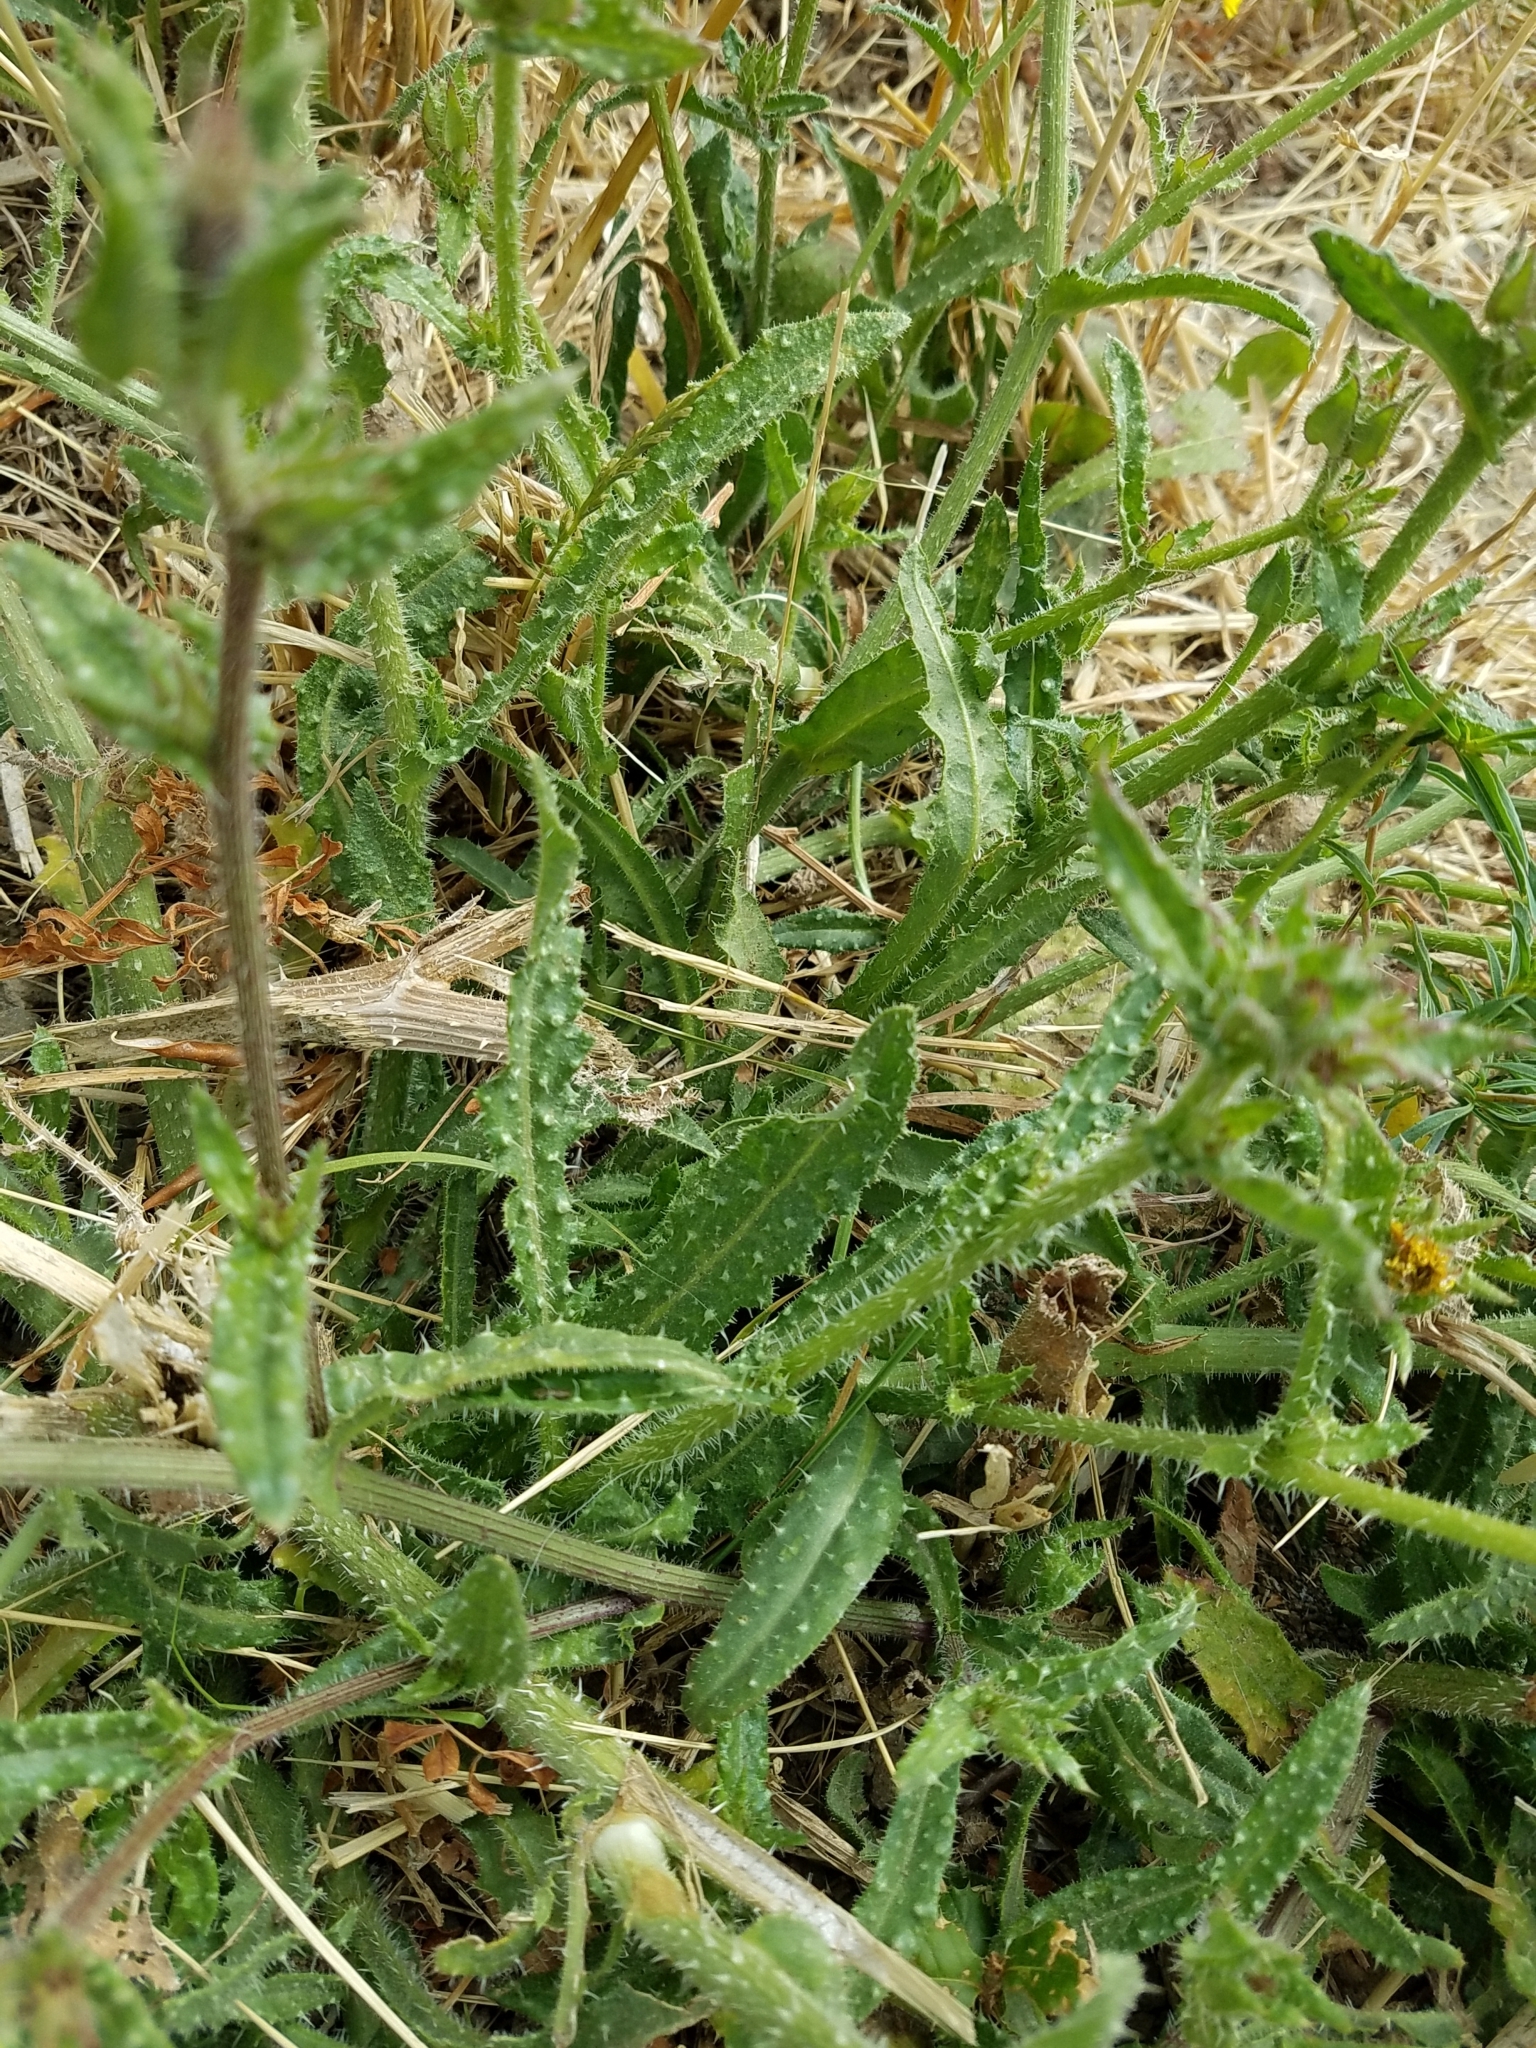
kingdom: Plantae
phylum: Tracheophyta
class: Magnoliopsida
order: Asterales
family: Asteraceae
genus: Helminthotheca
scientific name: Helminthotheca echioides
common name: Ox-tongue
